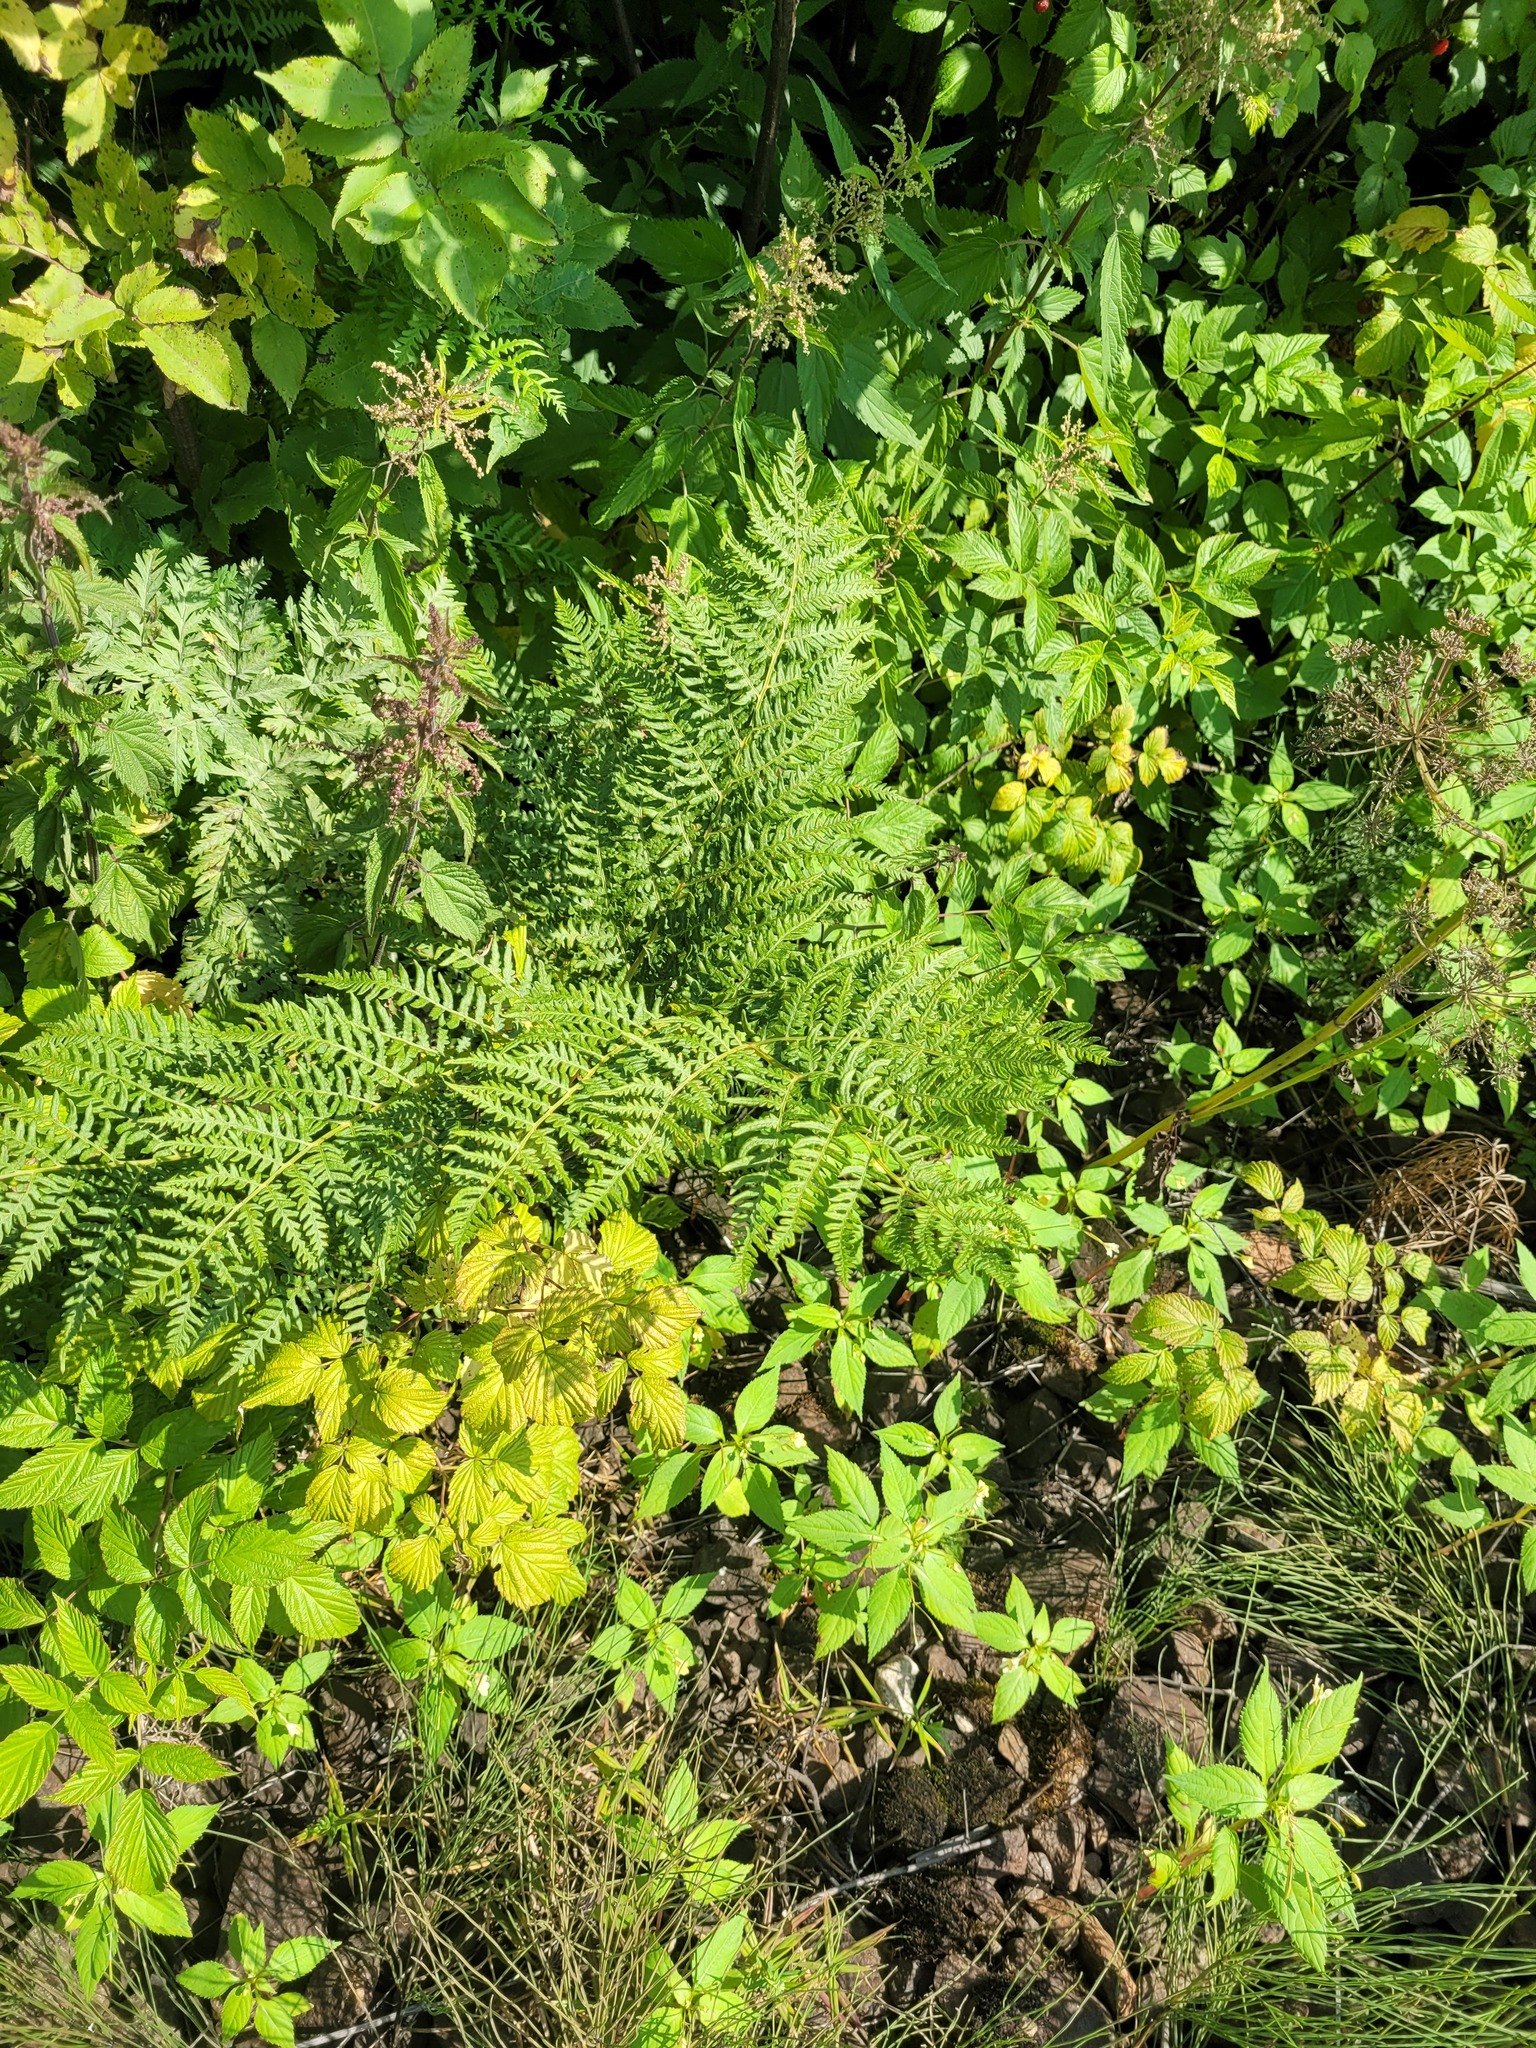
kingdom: Plantae
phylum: Tracheophyta
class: Polypodiopsida
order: Polypodiales
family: Dennstaedtiaceae
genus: Pteridium
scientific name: Pteridium aquilinum
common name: Bracken
